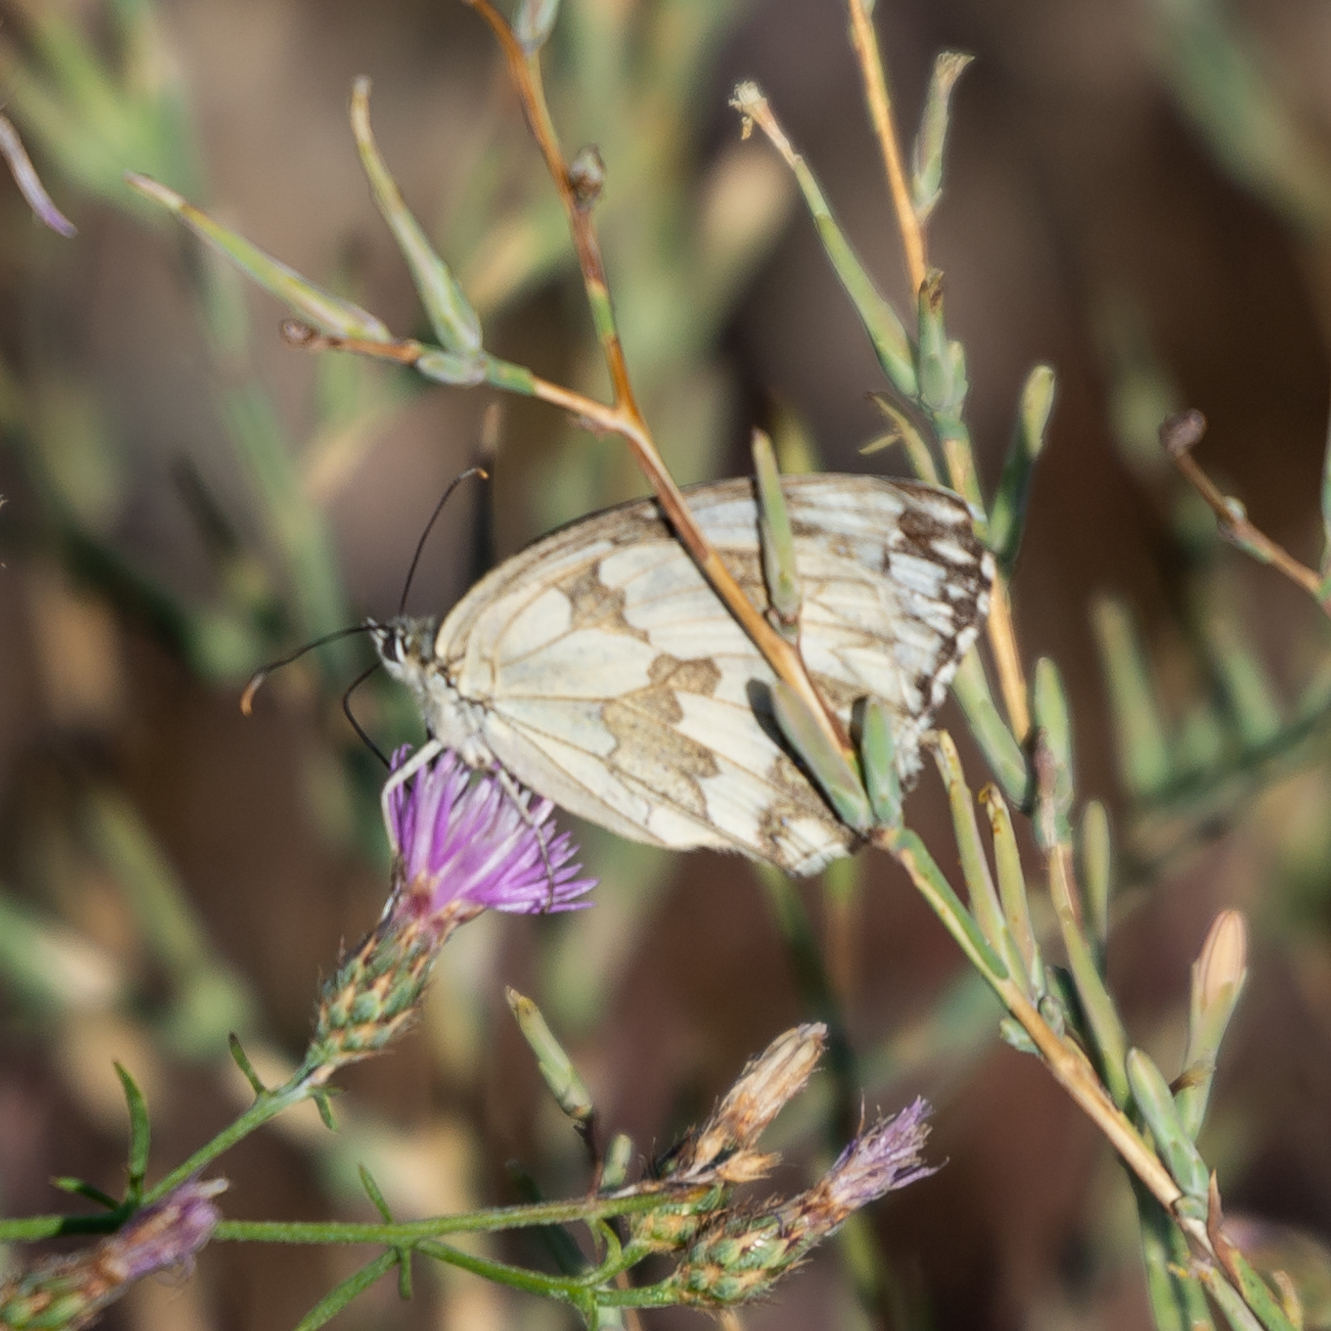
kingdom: Animalia
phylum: Arthropoda
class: Insecta
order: Lepidoptera
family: Nymphalidae
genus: Melanargia
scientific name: Melanargia lachesis
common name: Iberian marbled white
